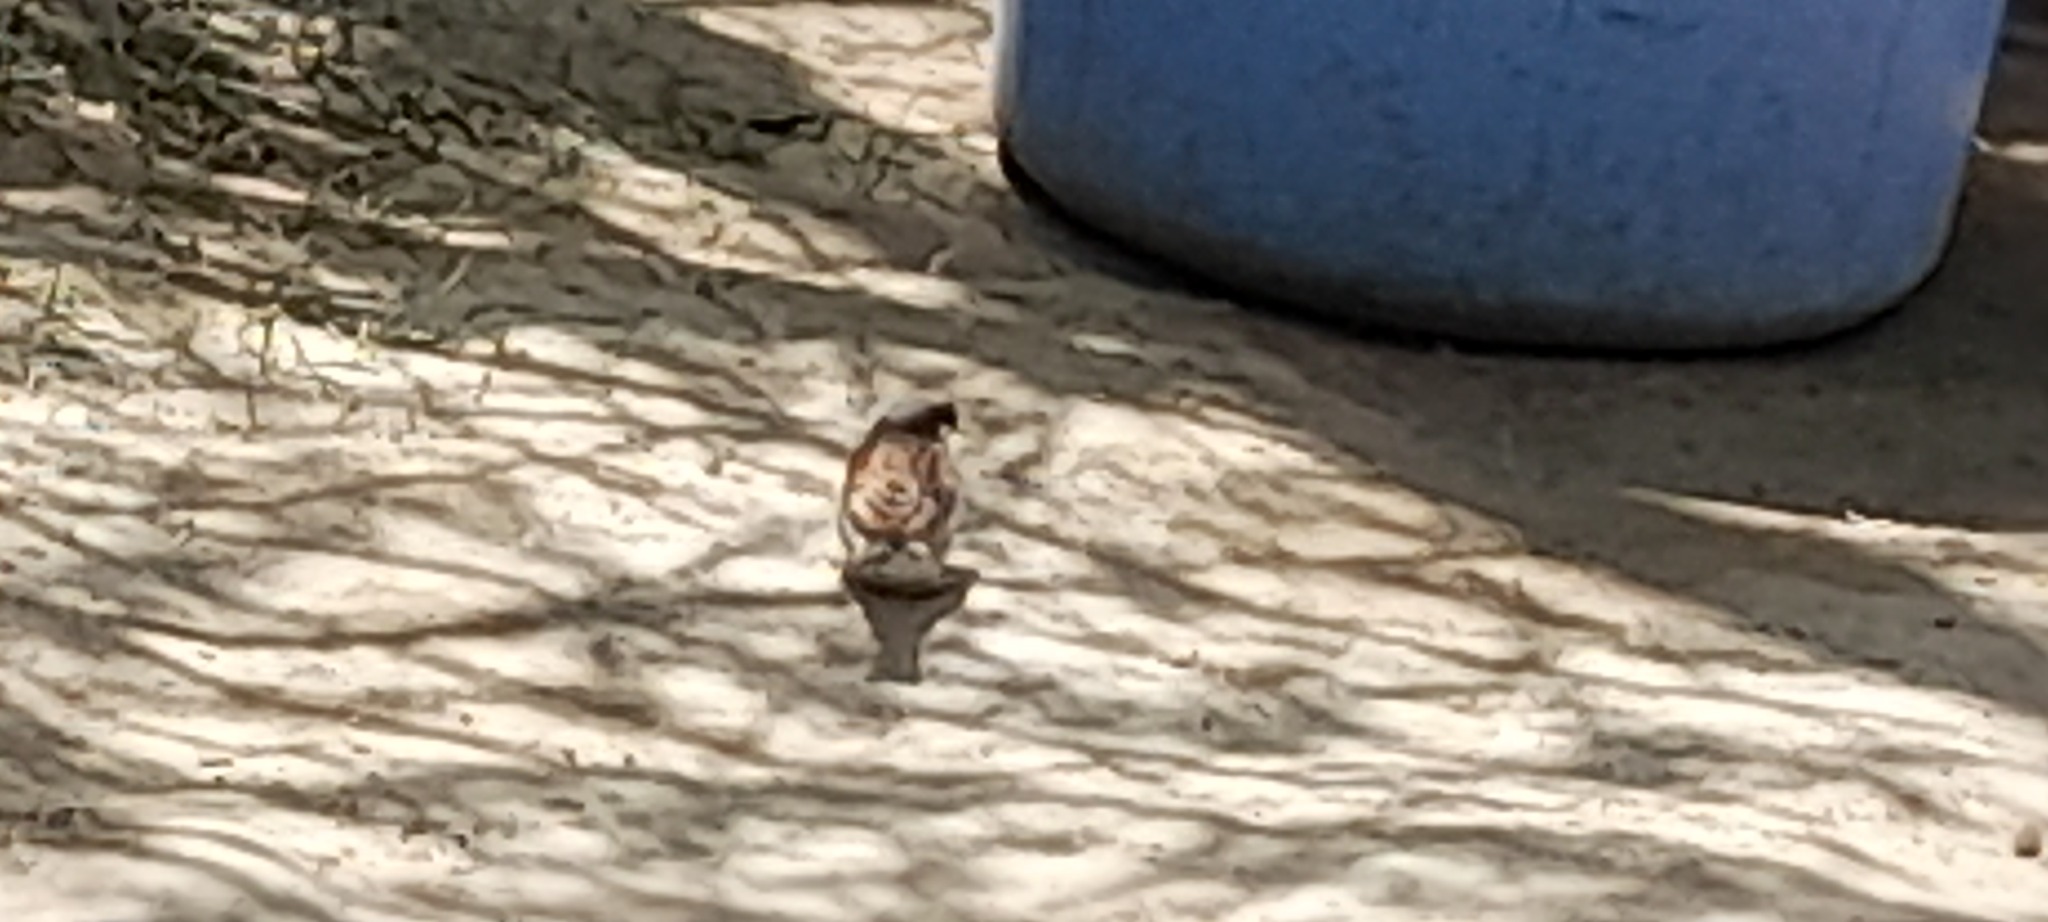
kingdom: Animalia
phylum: Chordata
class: Aves
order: Passeriformes
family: Passeridae
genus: Passer
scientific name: Passer domesticus
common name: House sparrow
